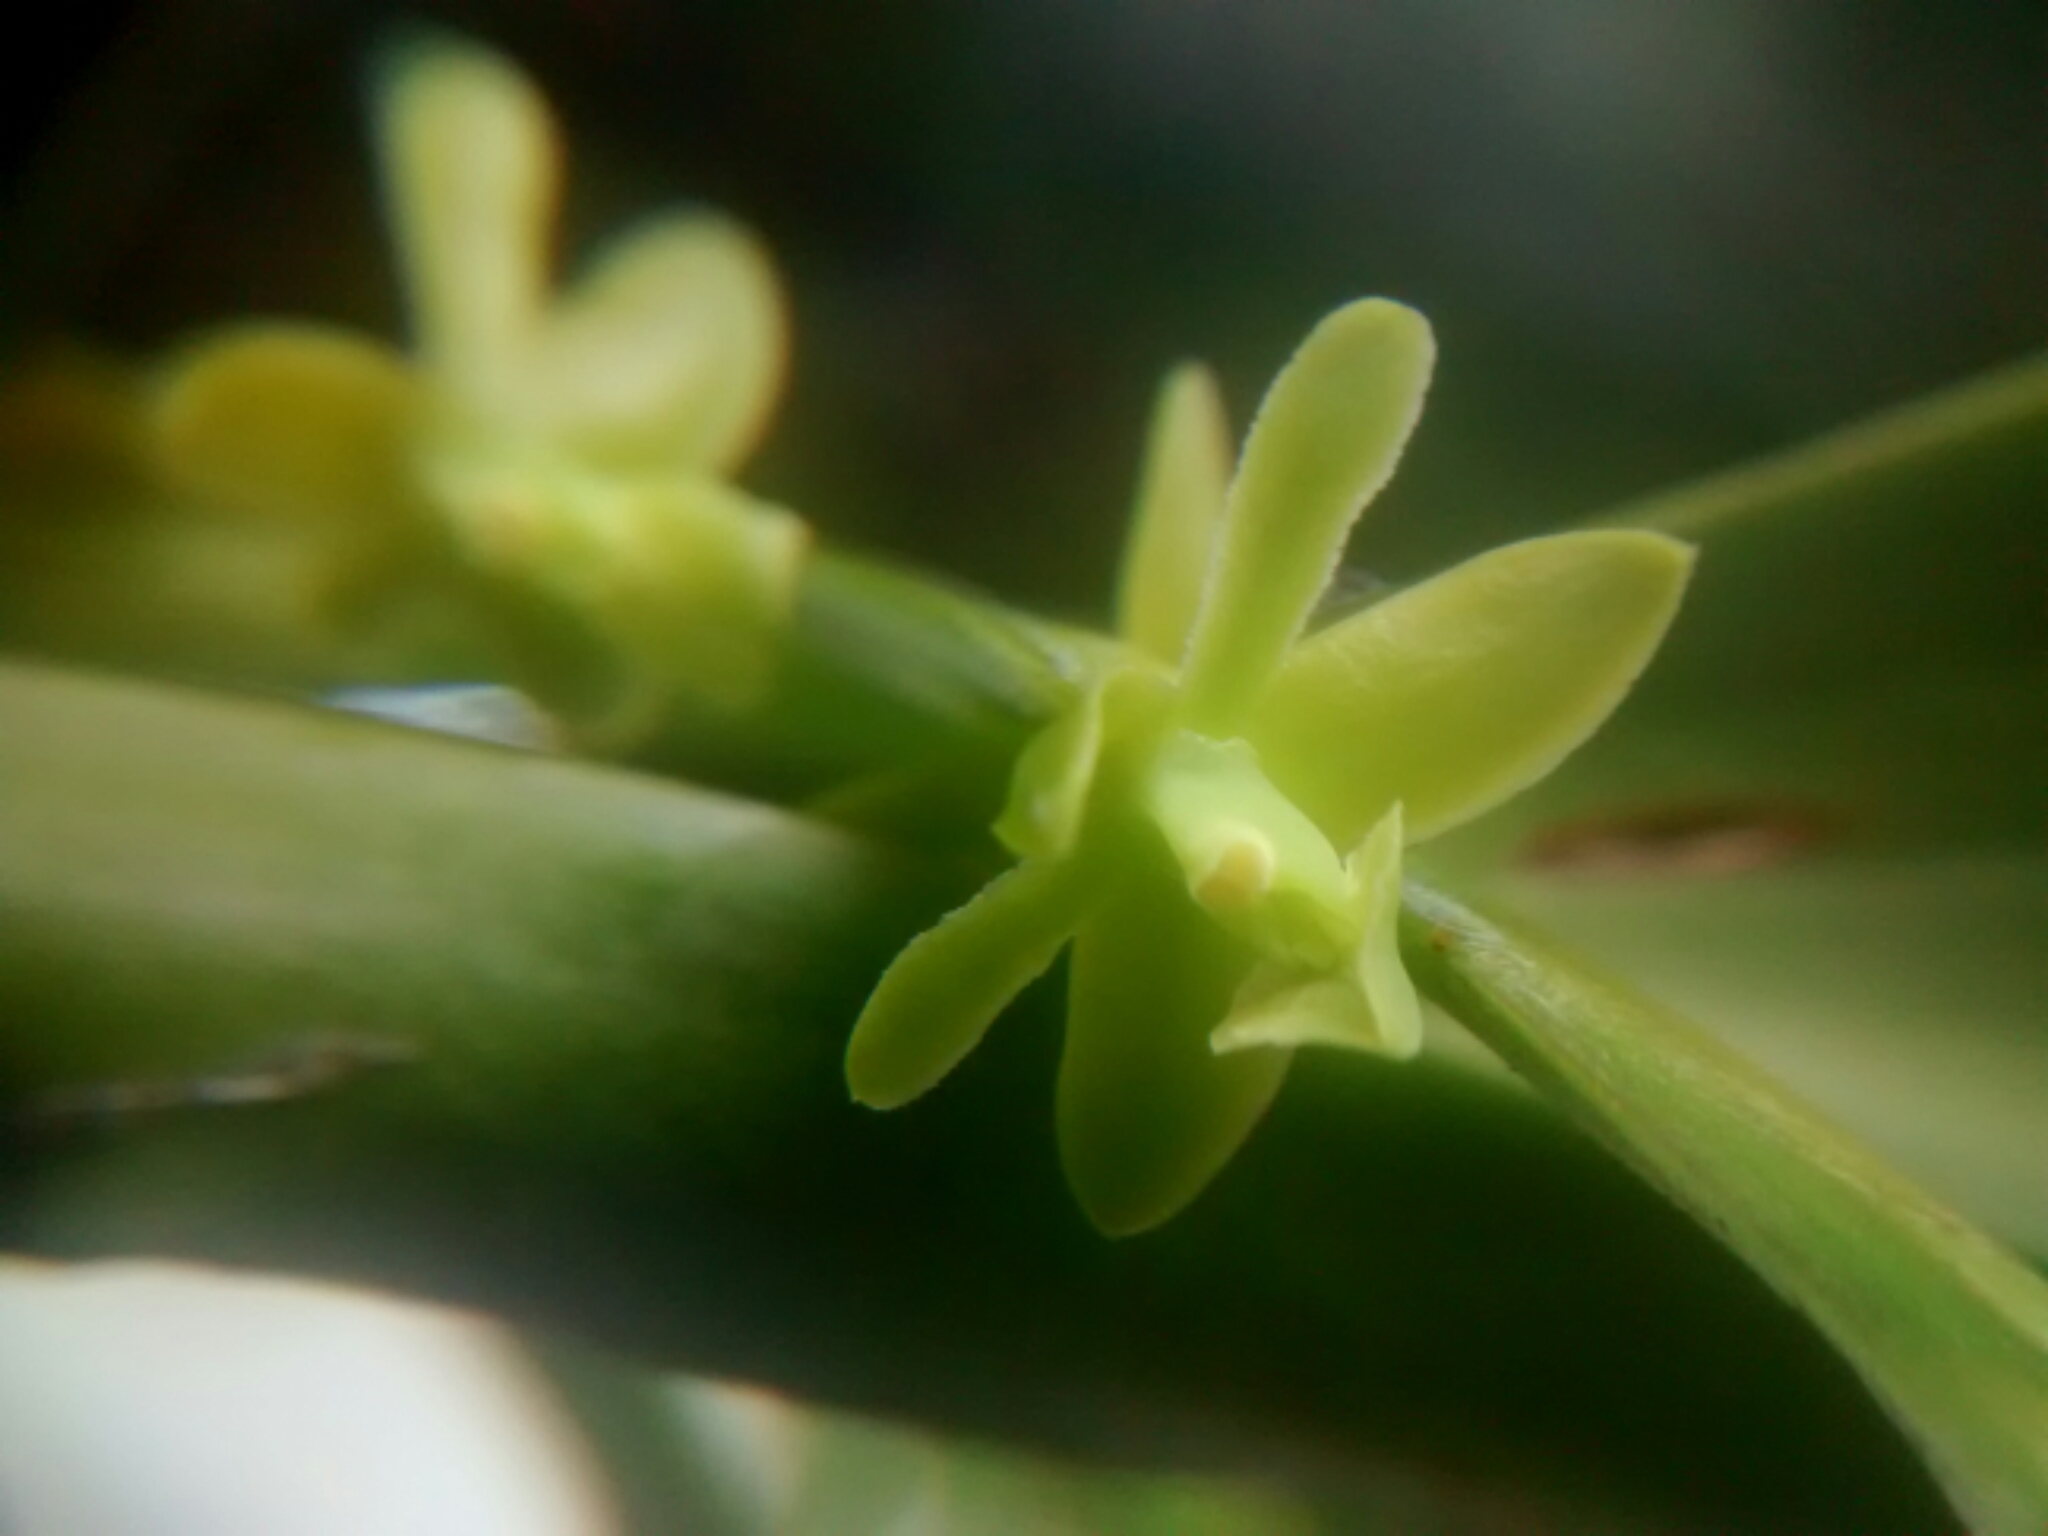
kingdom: Plantae
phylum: Tracheophyta
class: Liliopsida
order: Asparagales
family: Orchidaceae
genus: Epidendrum
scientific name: Epidendrum rigidum
